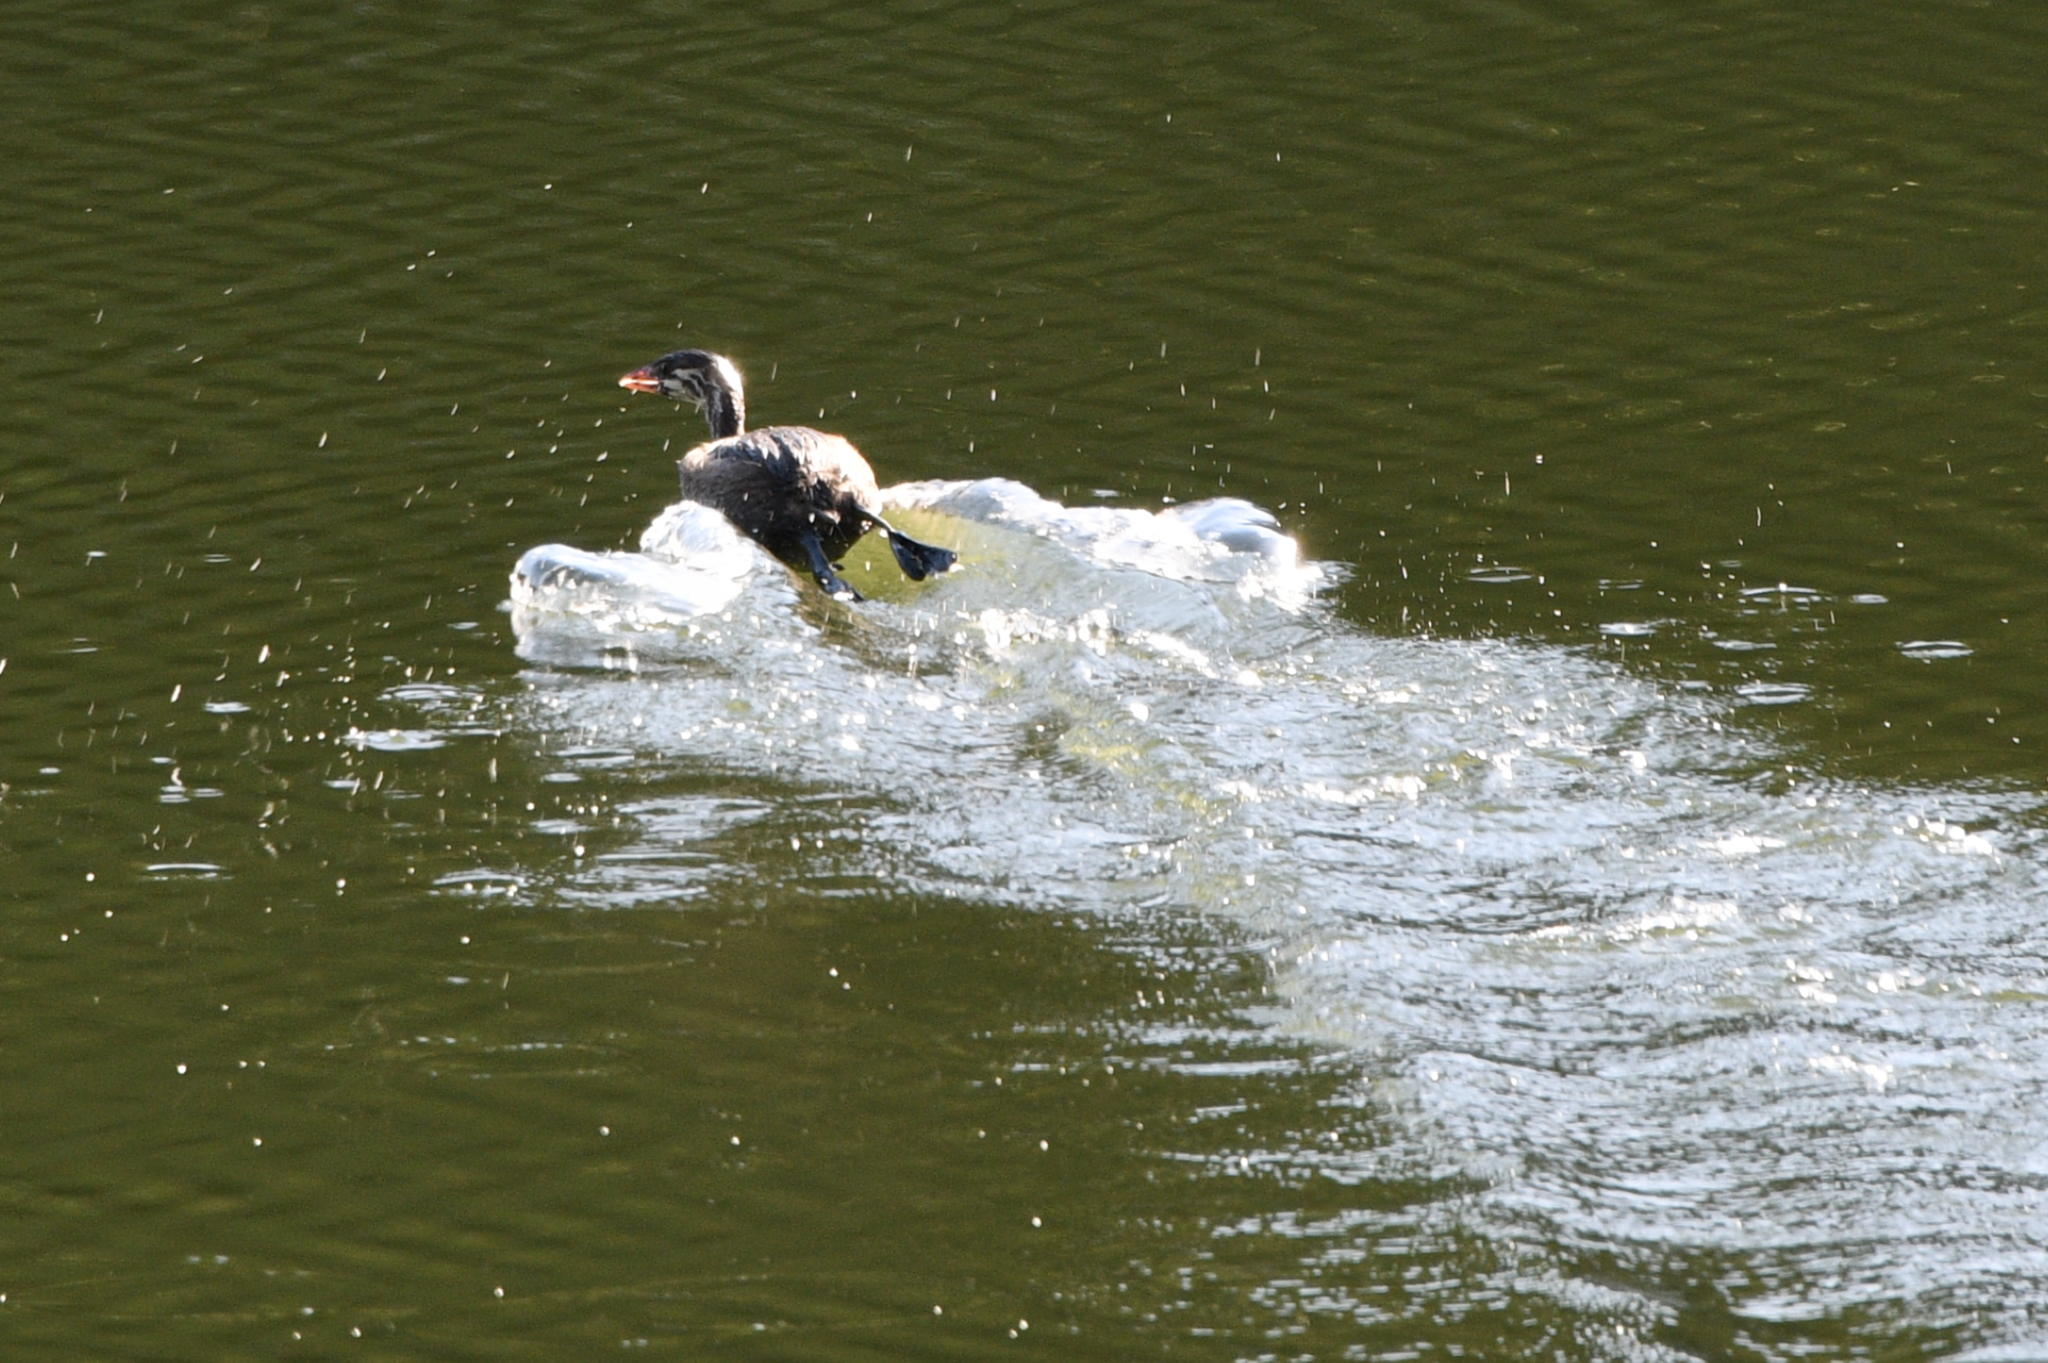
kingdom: Animalia
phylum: Chordata
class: Aves
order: Podicipediformes
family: Podicipedidae
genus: Podilymbus
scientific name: Podilymbus podiceps
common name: Pied-billed grebe
